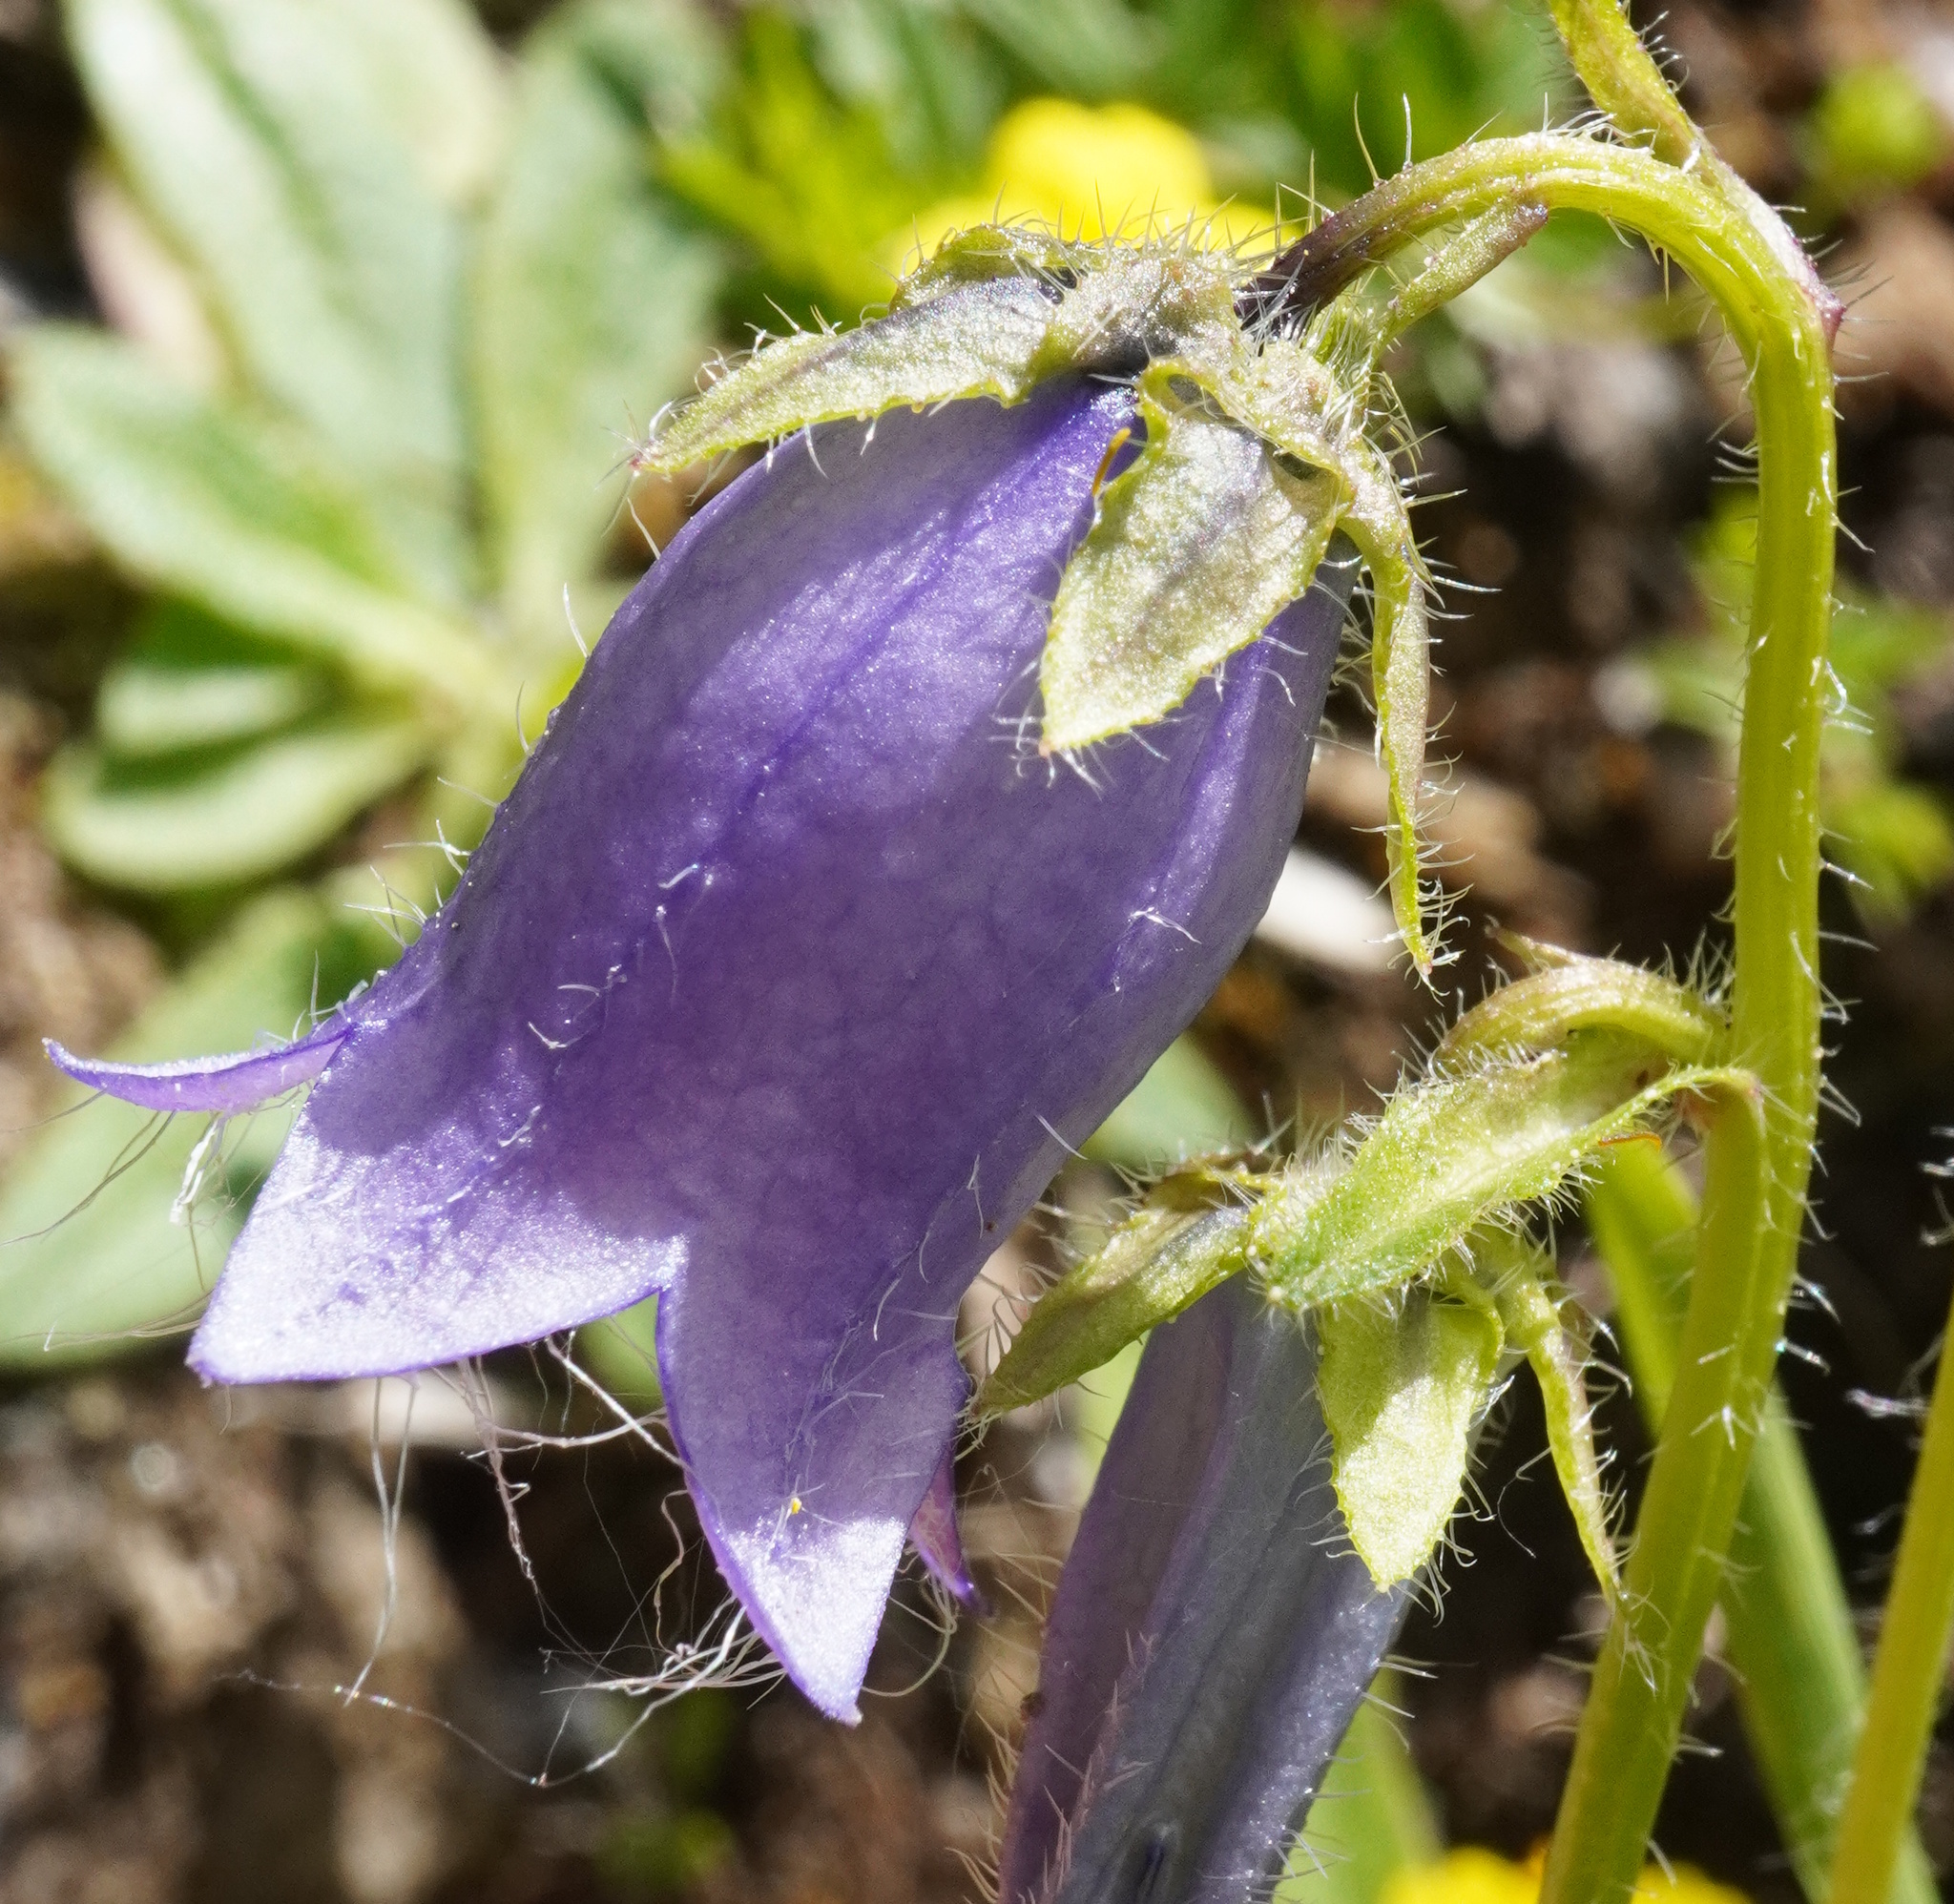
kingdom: Plantae
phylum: Tracheophyta
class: Magnoliopsida
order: Asterales
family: Campanulaceae
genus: Campanula
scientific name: Campanula barbata
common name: Bearded bellflower
